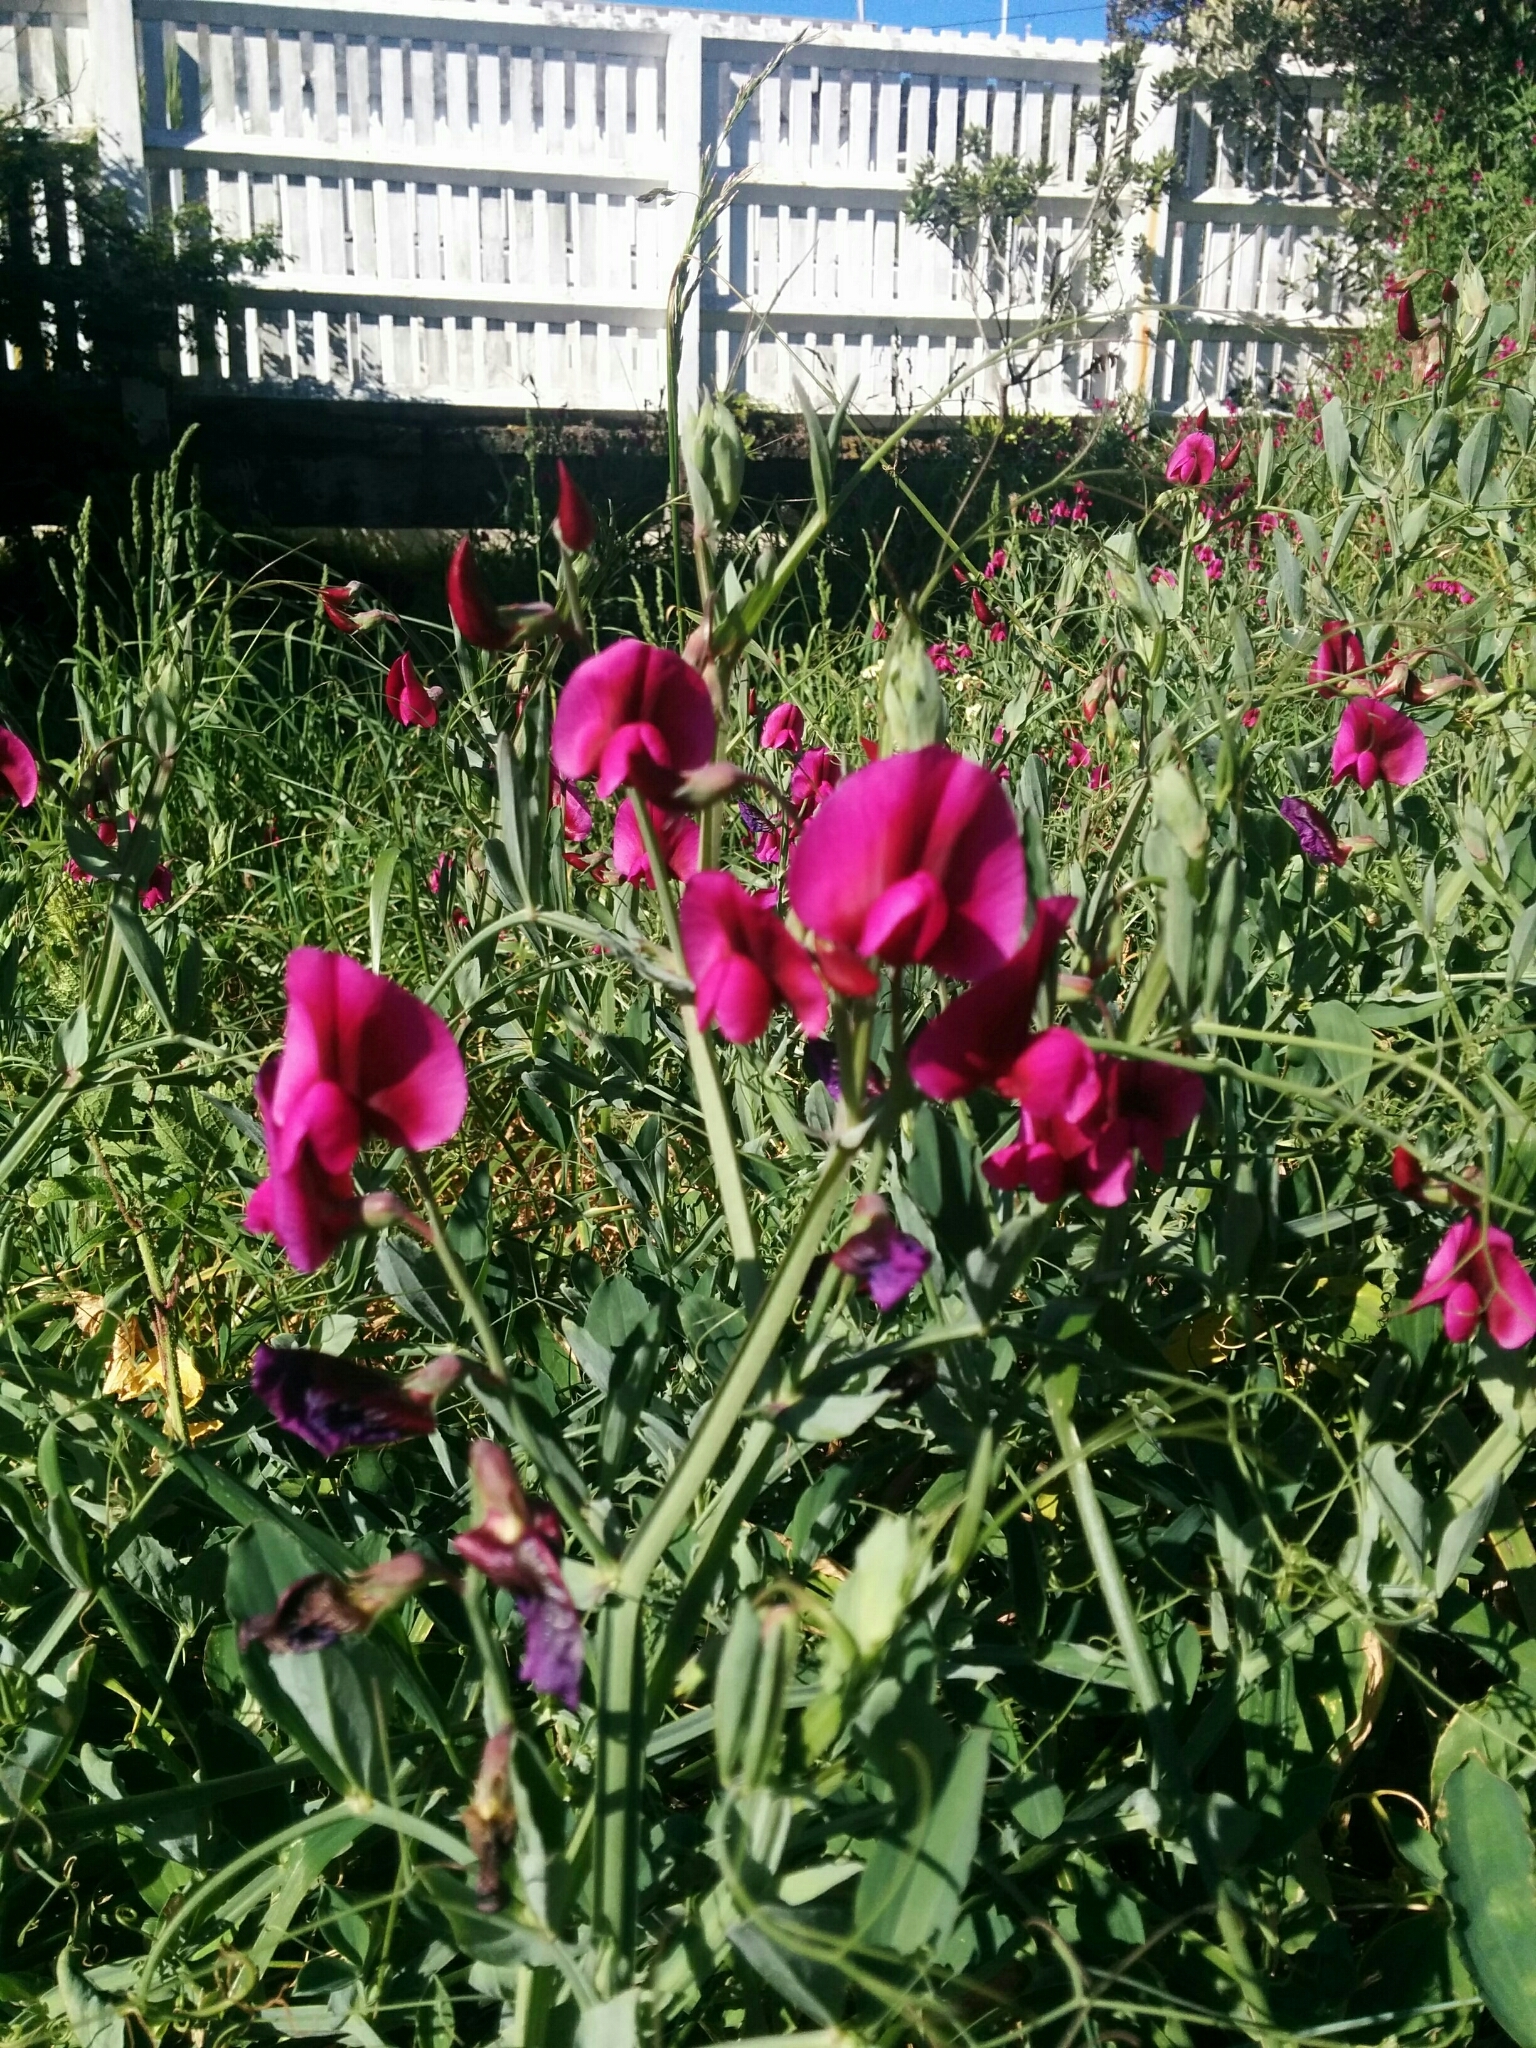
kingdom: Plantae
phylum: Tracheophyta
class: Magnoliopsida
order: Fabales
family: Fabaceae
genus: Lathyrus
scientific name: Lathyrus tingitanus
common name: Tangier pea
